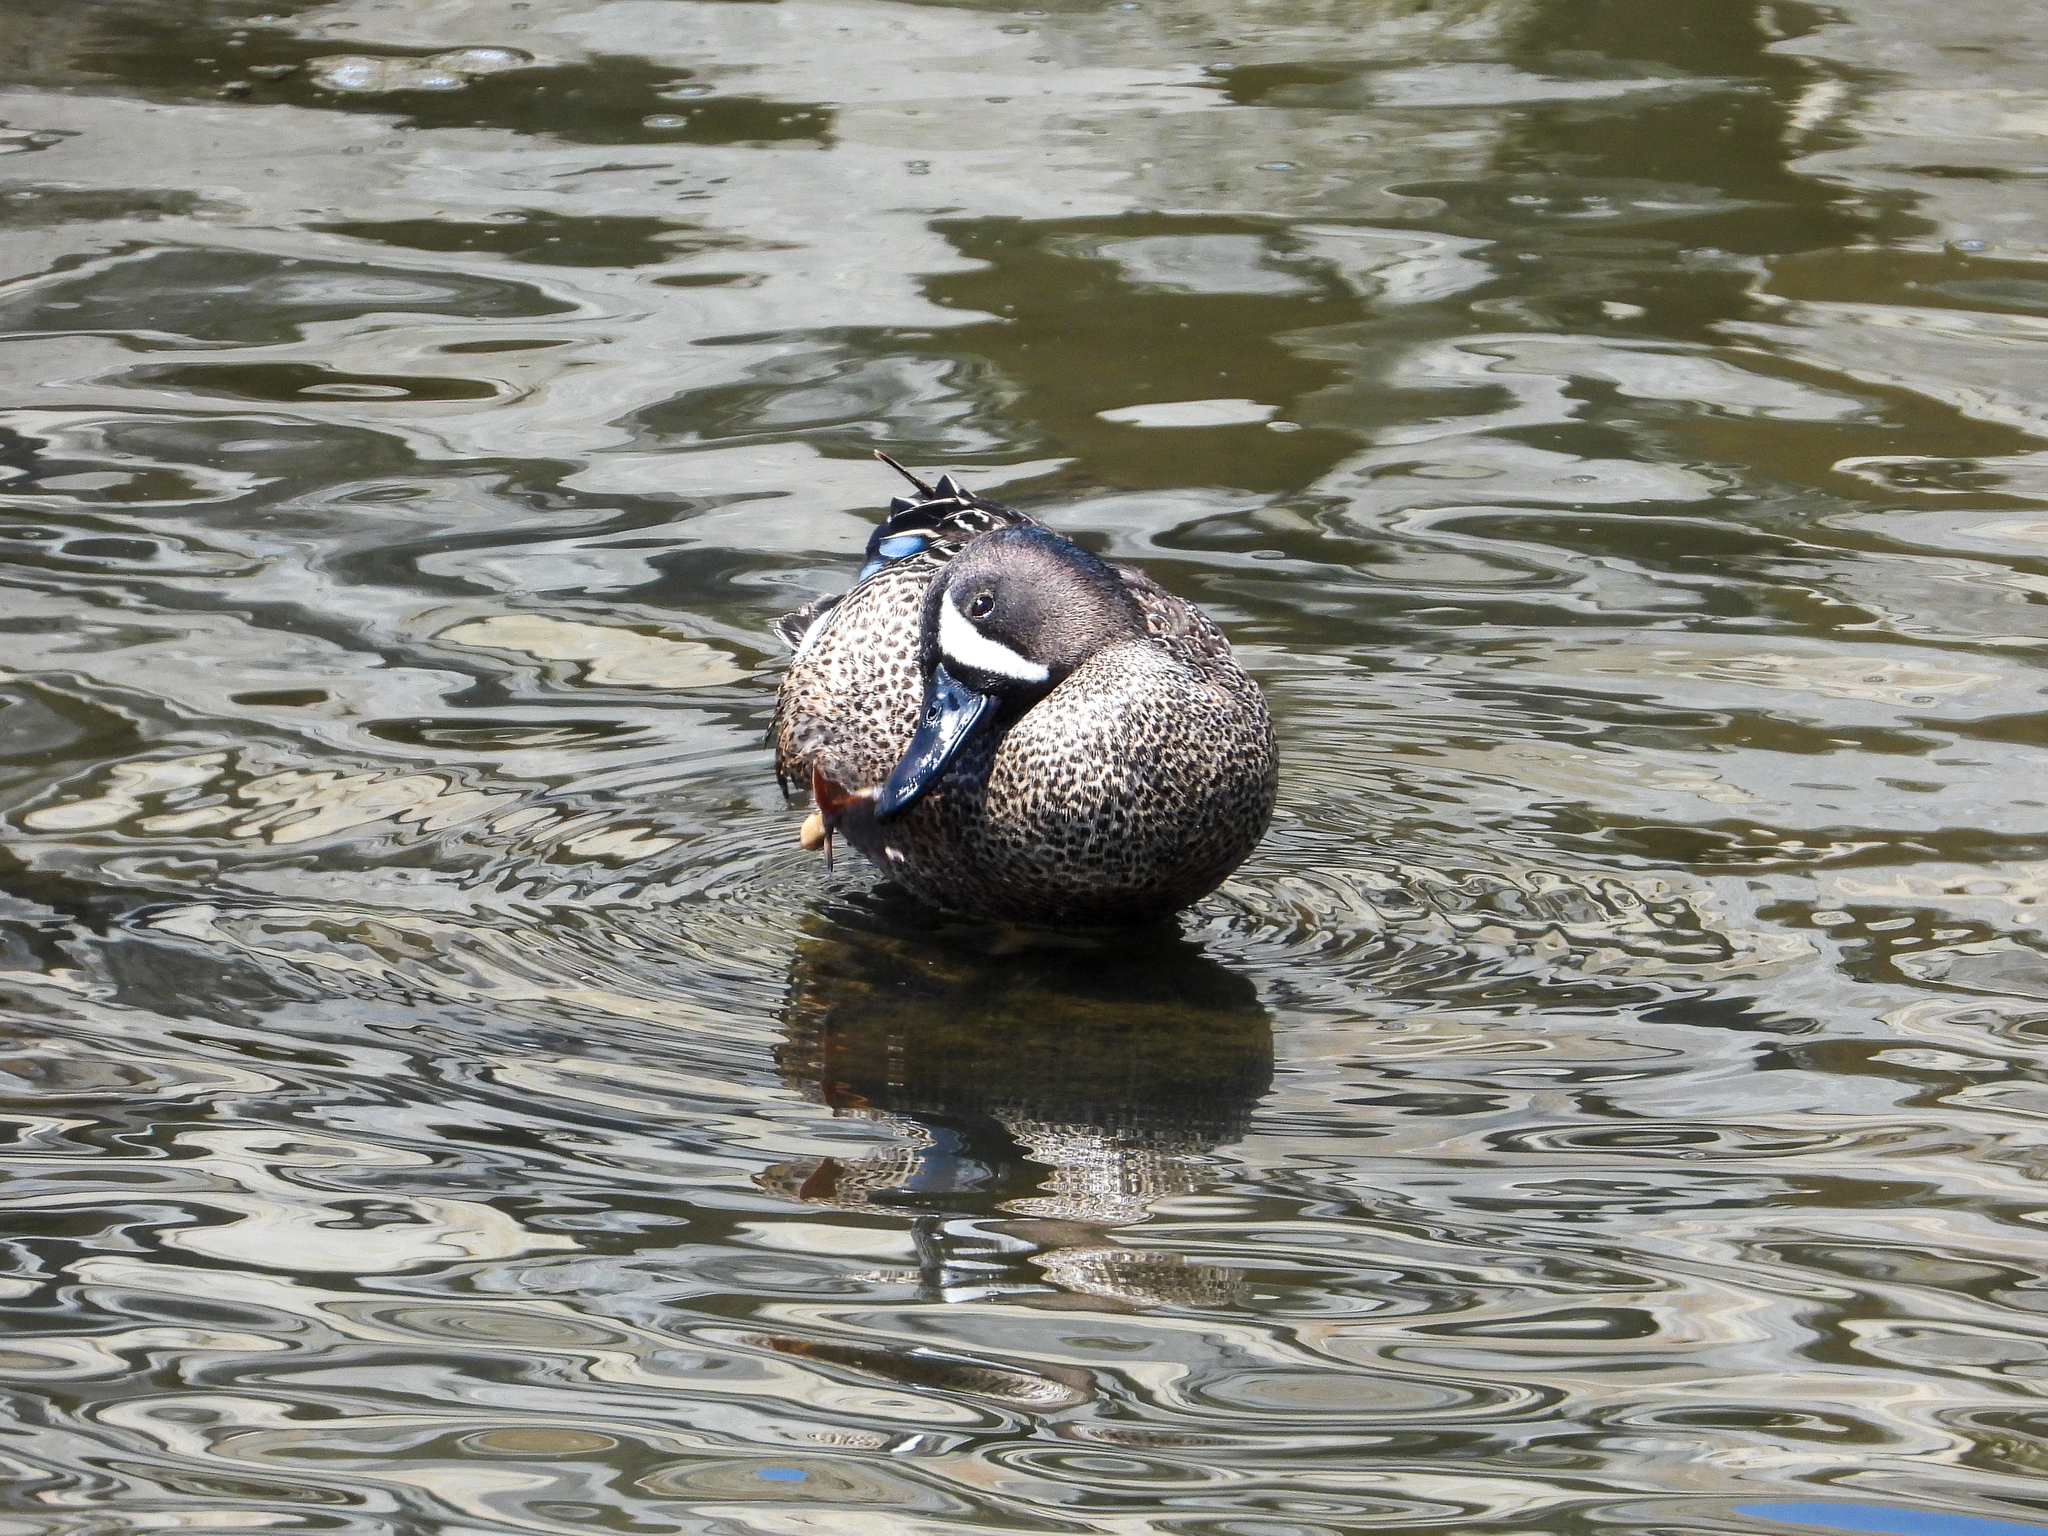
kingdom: Animalia
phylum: Chordata
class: Aves
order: Anseriformes
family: Anatidae
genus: Spatula
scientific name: Spatula discors
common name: Blue-winged teal
